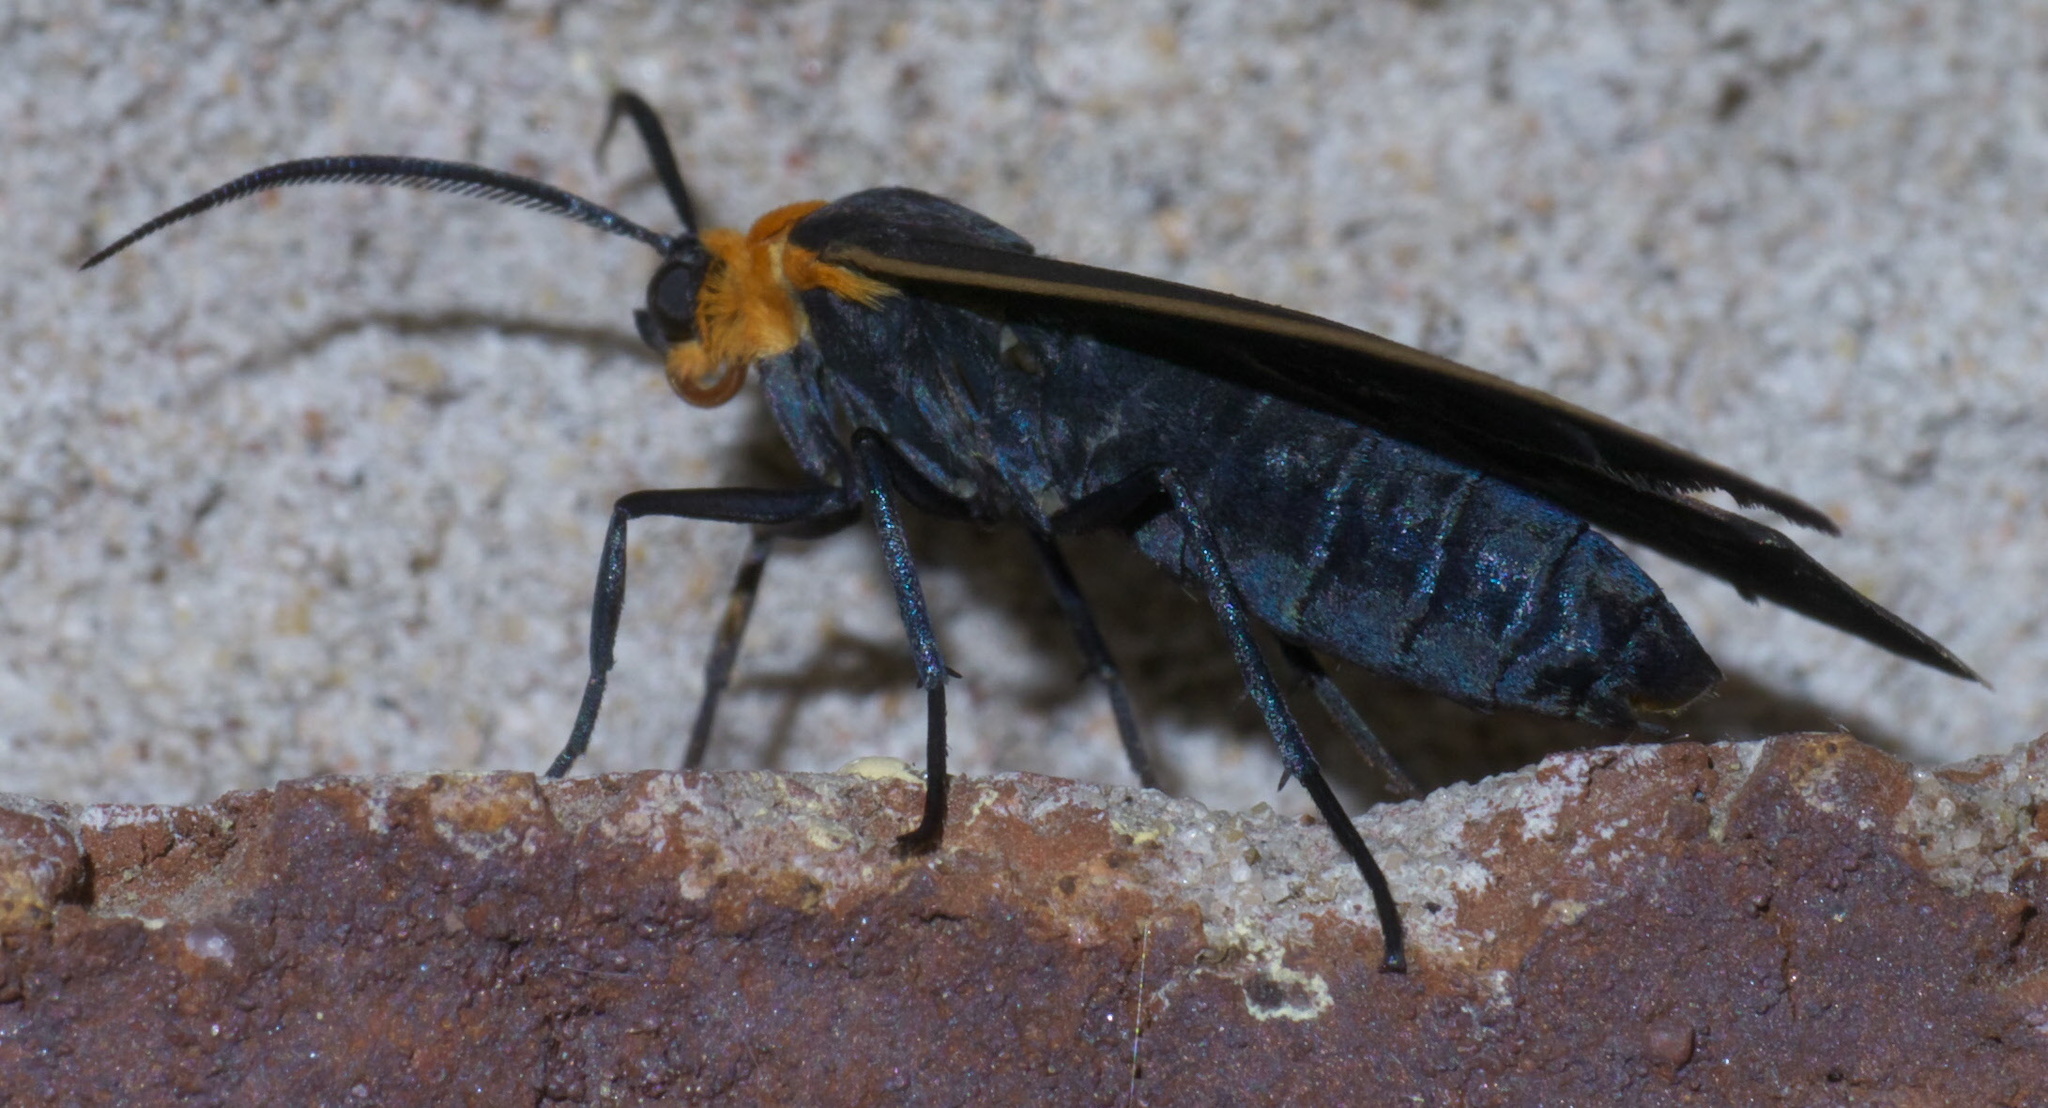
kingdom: Animalia
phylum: Arthropoda
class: Insecta
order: Lepidoptera
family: Erebidae
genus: Cisseps
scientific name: Cisseps fulvicollis
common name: Yellow-collared scape moth
